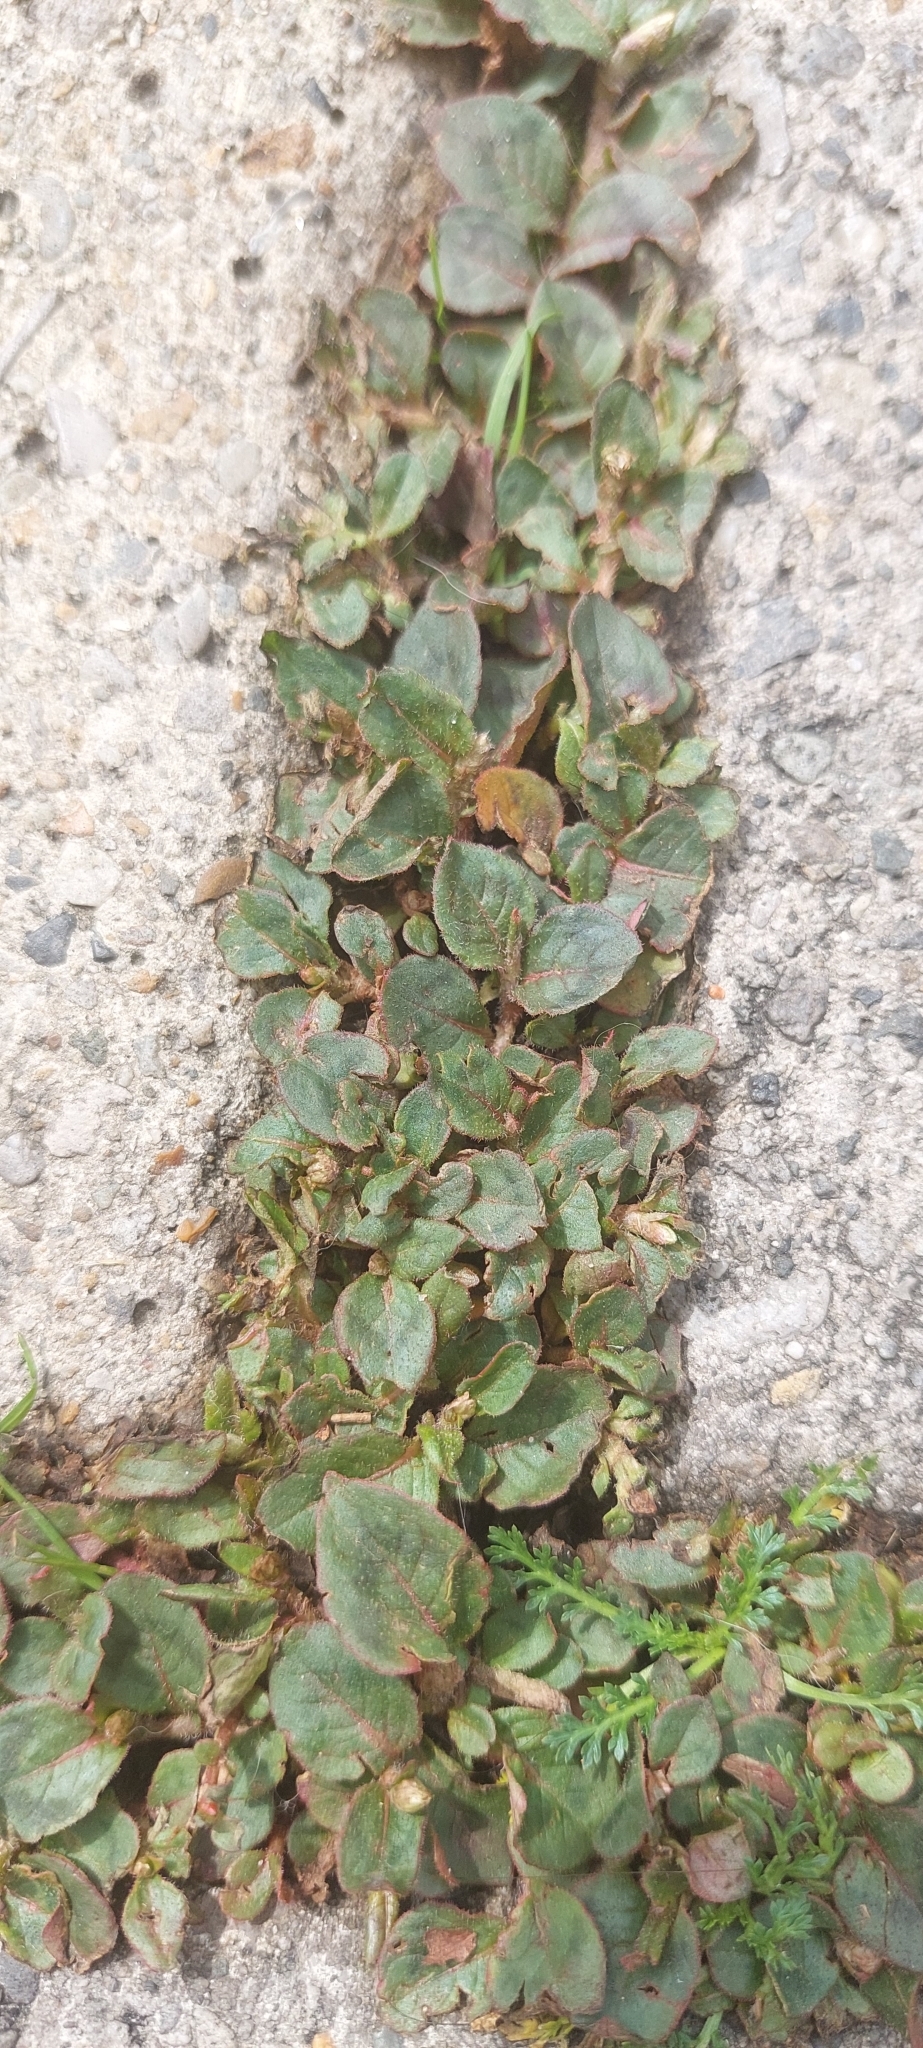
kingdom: Plantae
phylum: Tracheophyta
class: Magnoliopsida
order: Caryophyllales
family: Polygonaceae
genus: Persicaria
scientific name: Persicaria capitata
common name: Pinkhead smartweed
